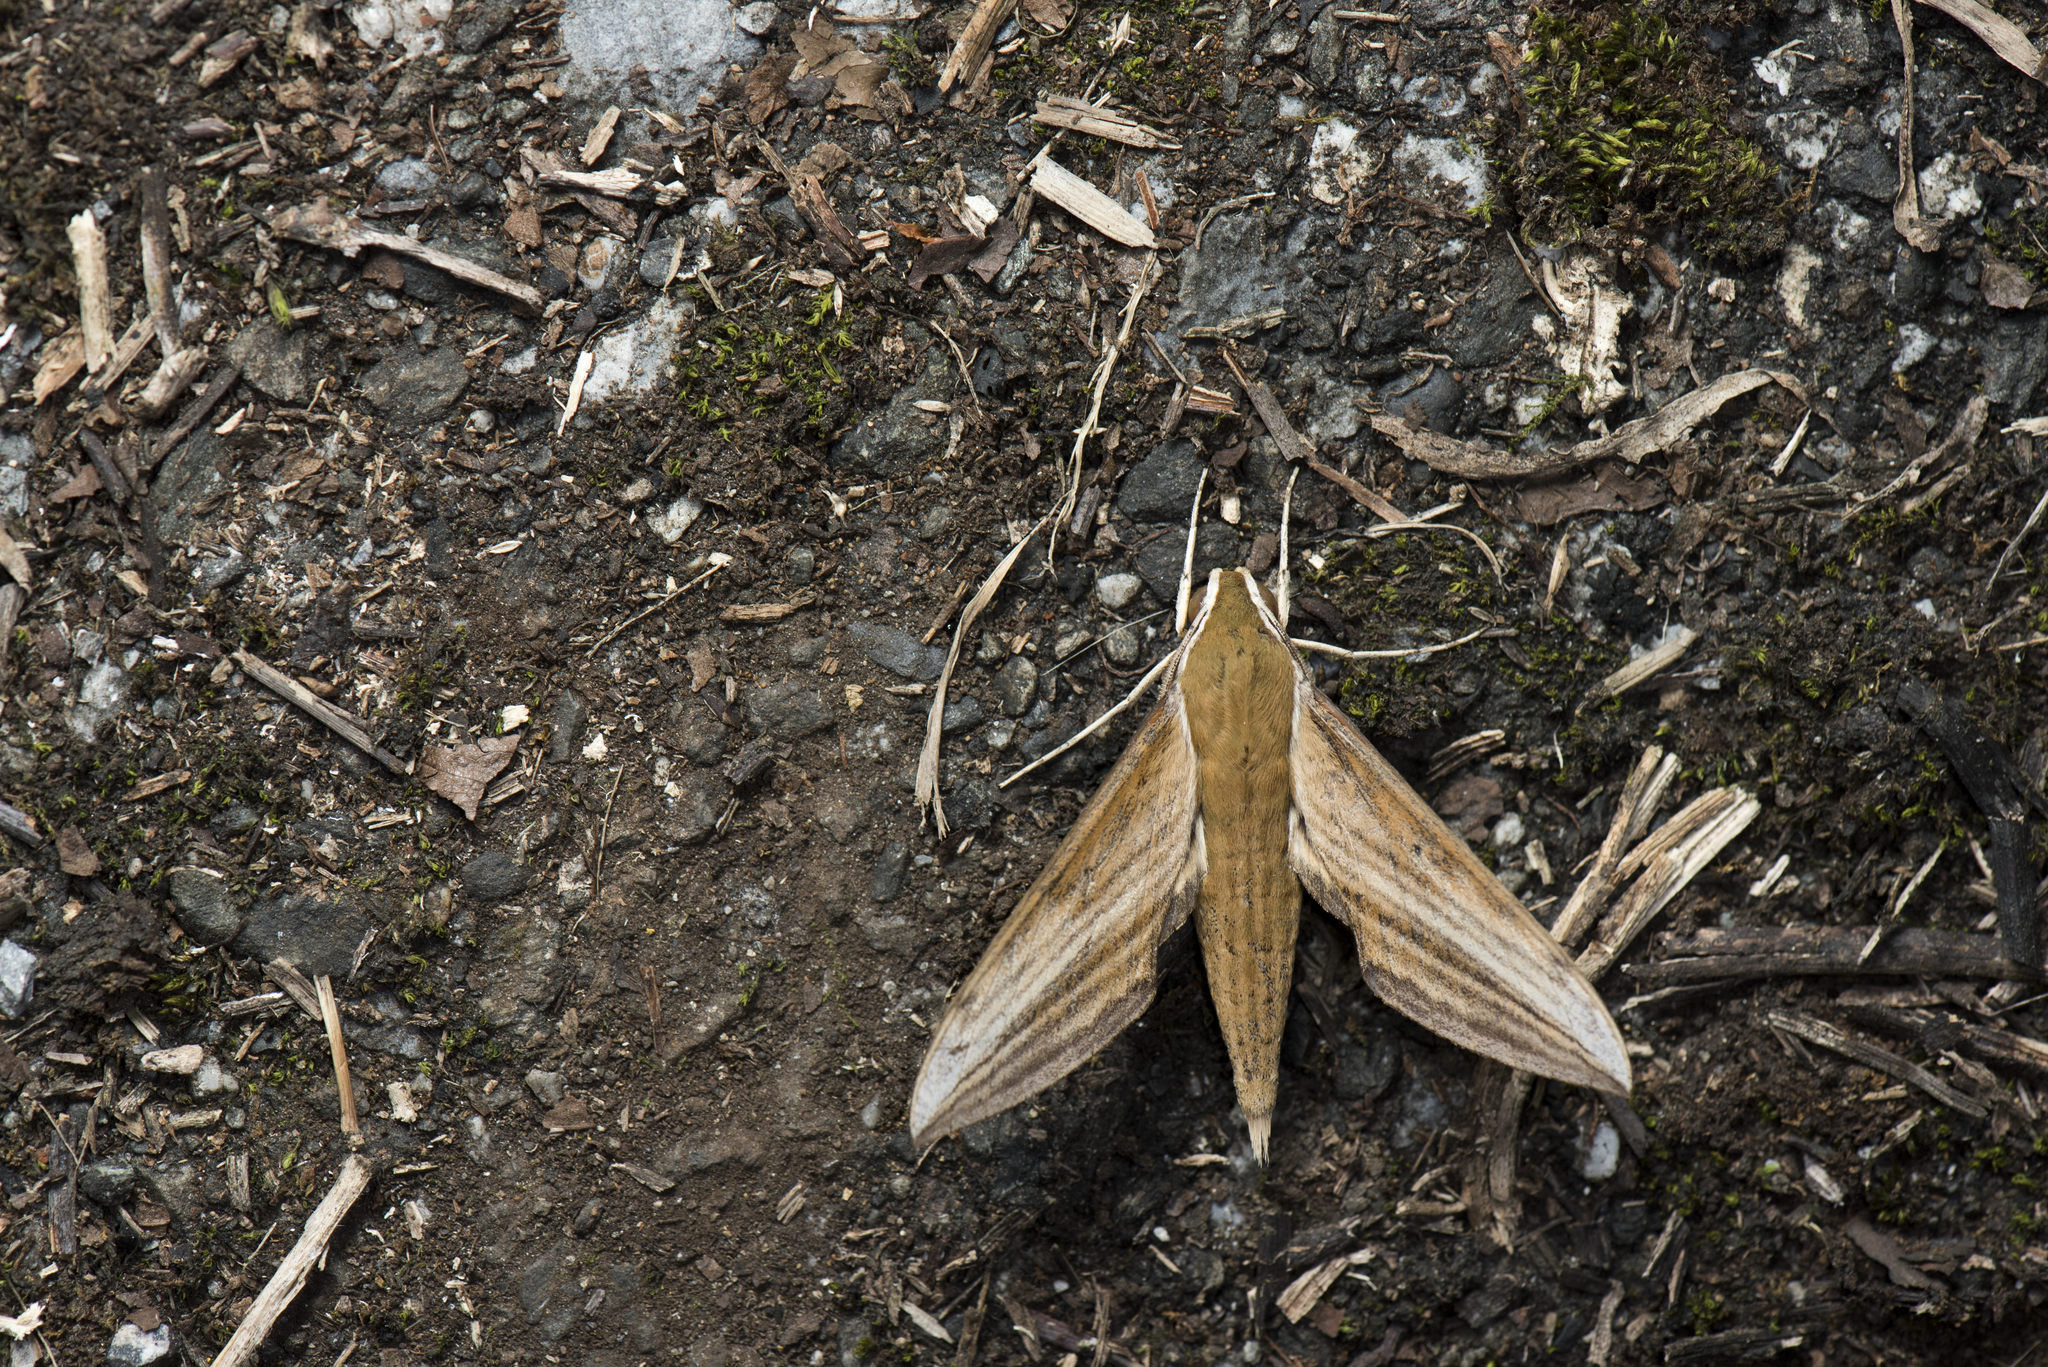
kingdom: Animalia
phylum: Arthropoda
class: Insecta
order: Lepidoptera
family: Sphingidae
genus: Cechetra
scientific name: Cechetra minor
